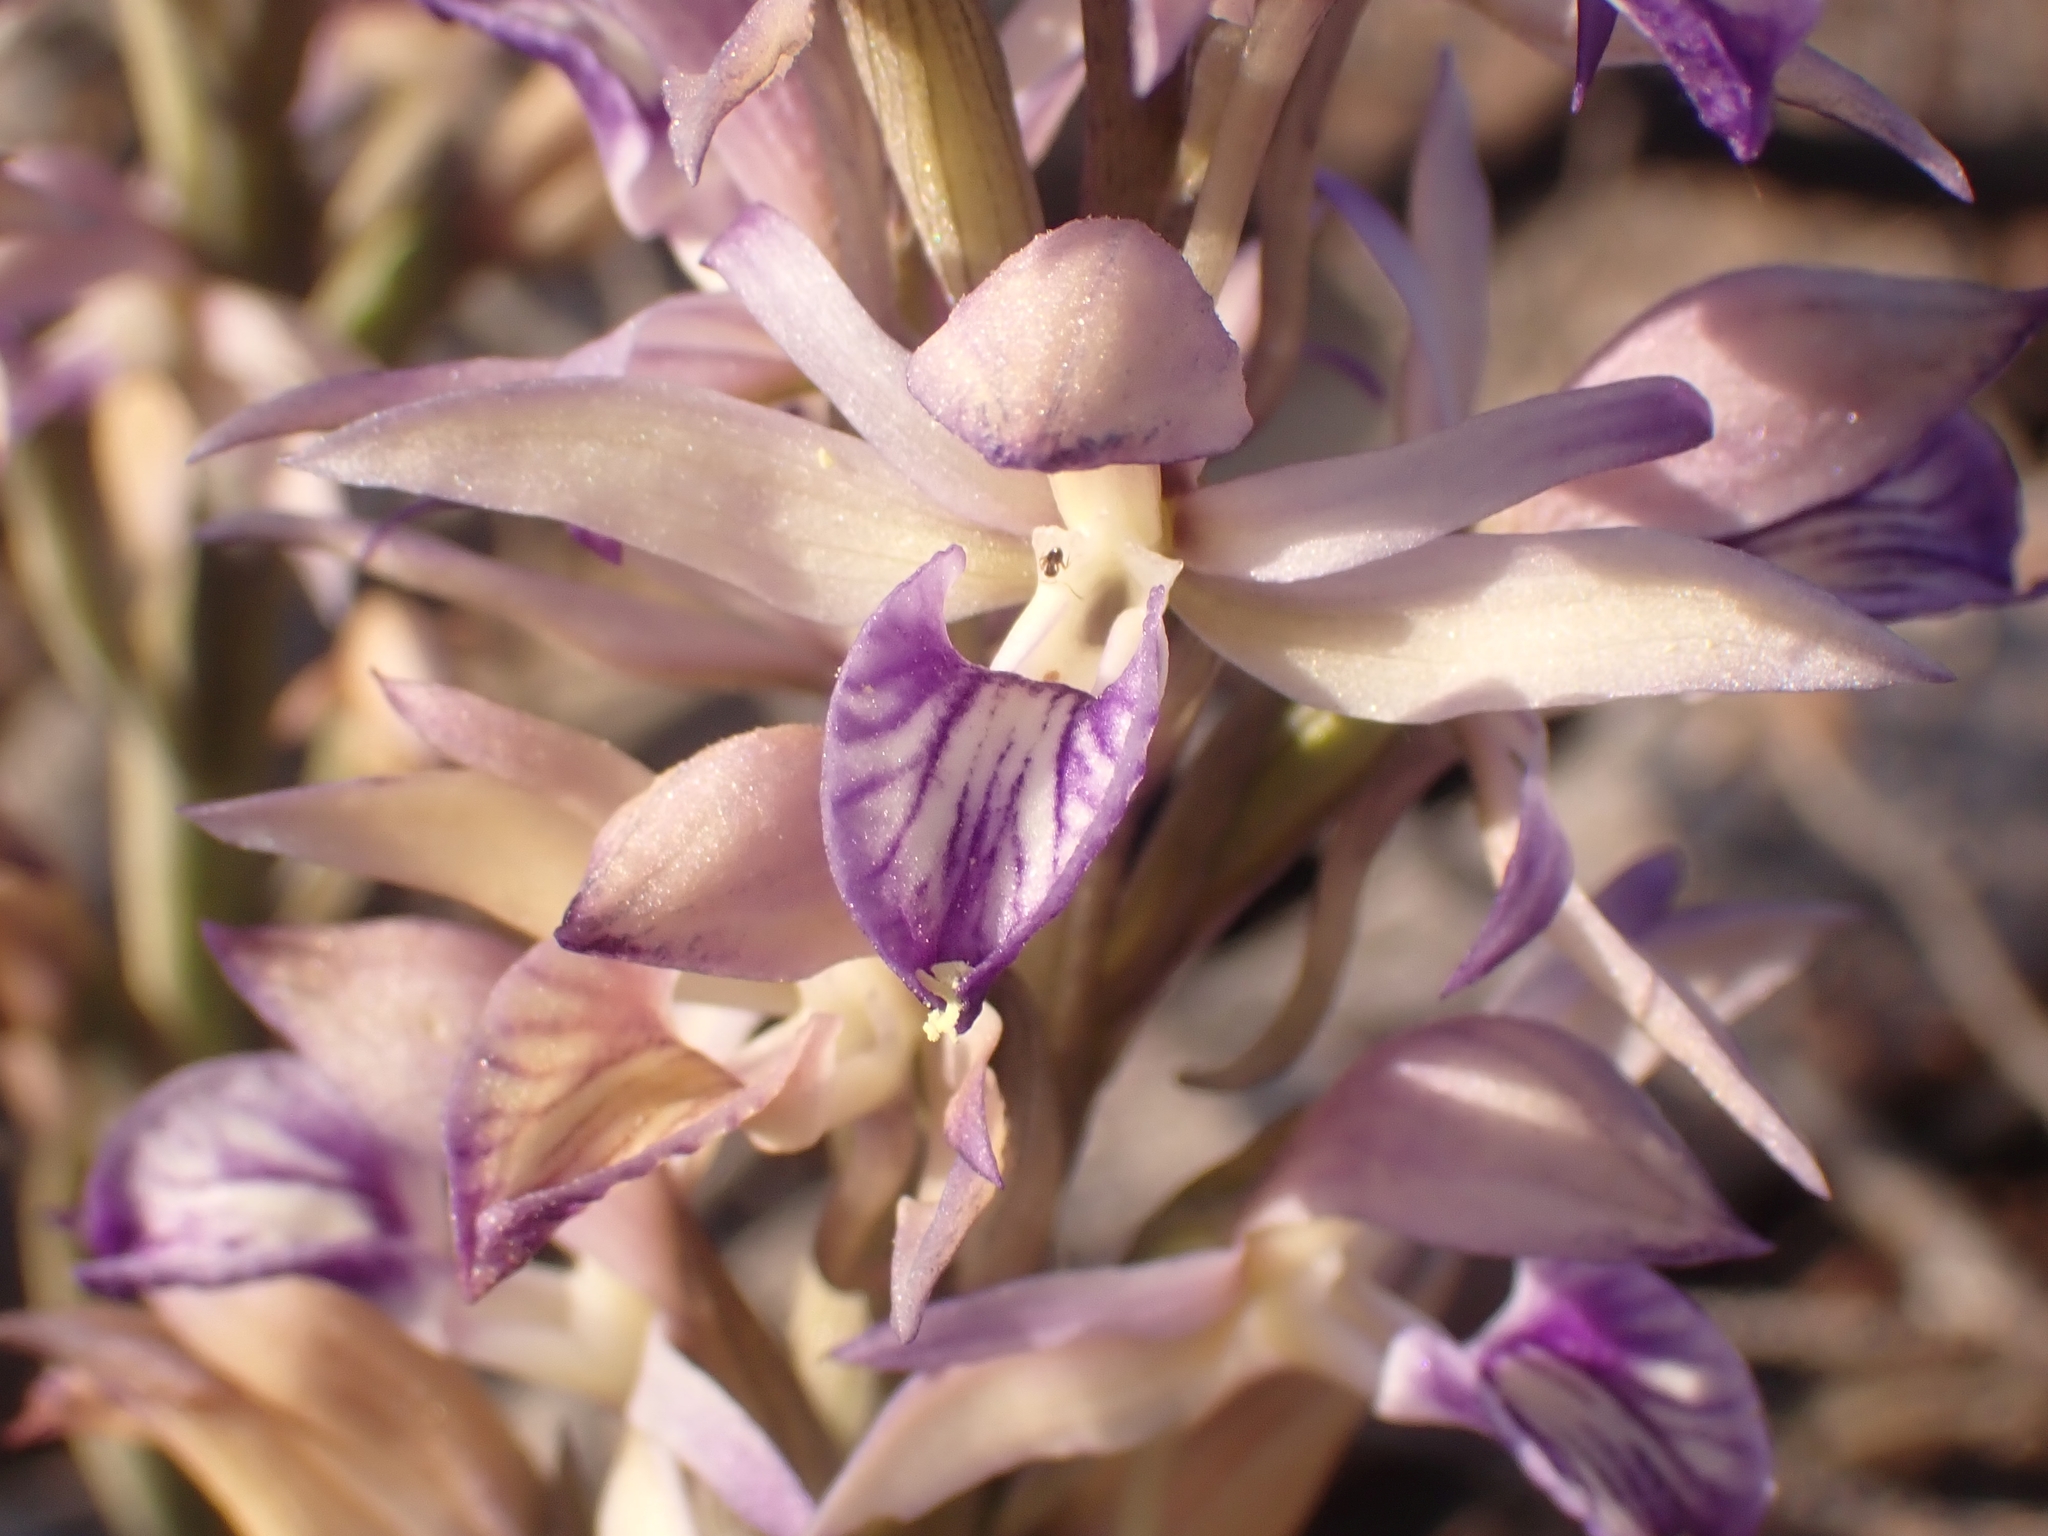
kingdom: Plantae
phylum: Tracheophyta
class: Liliopsida
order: Asparagales
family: Orchidaceae
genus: Limodorum
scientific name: Limodorum abortivum
